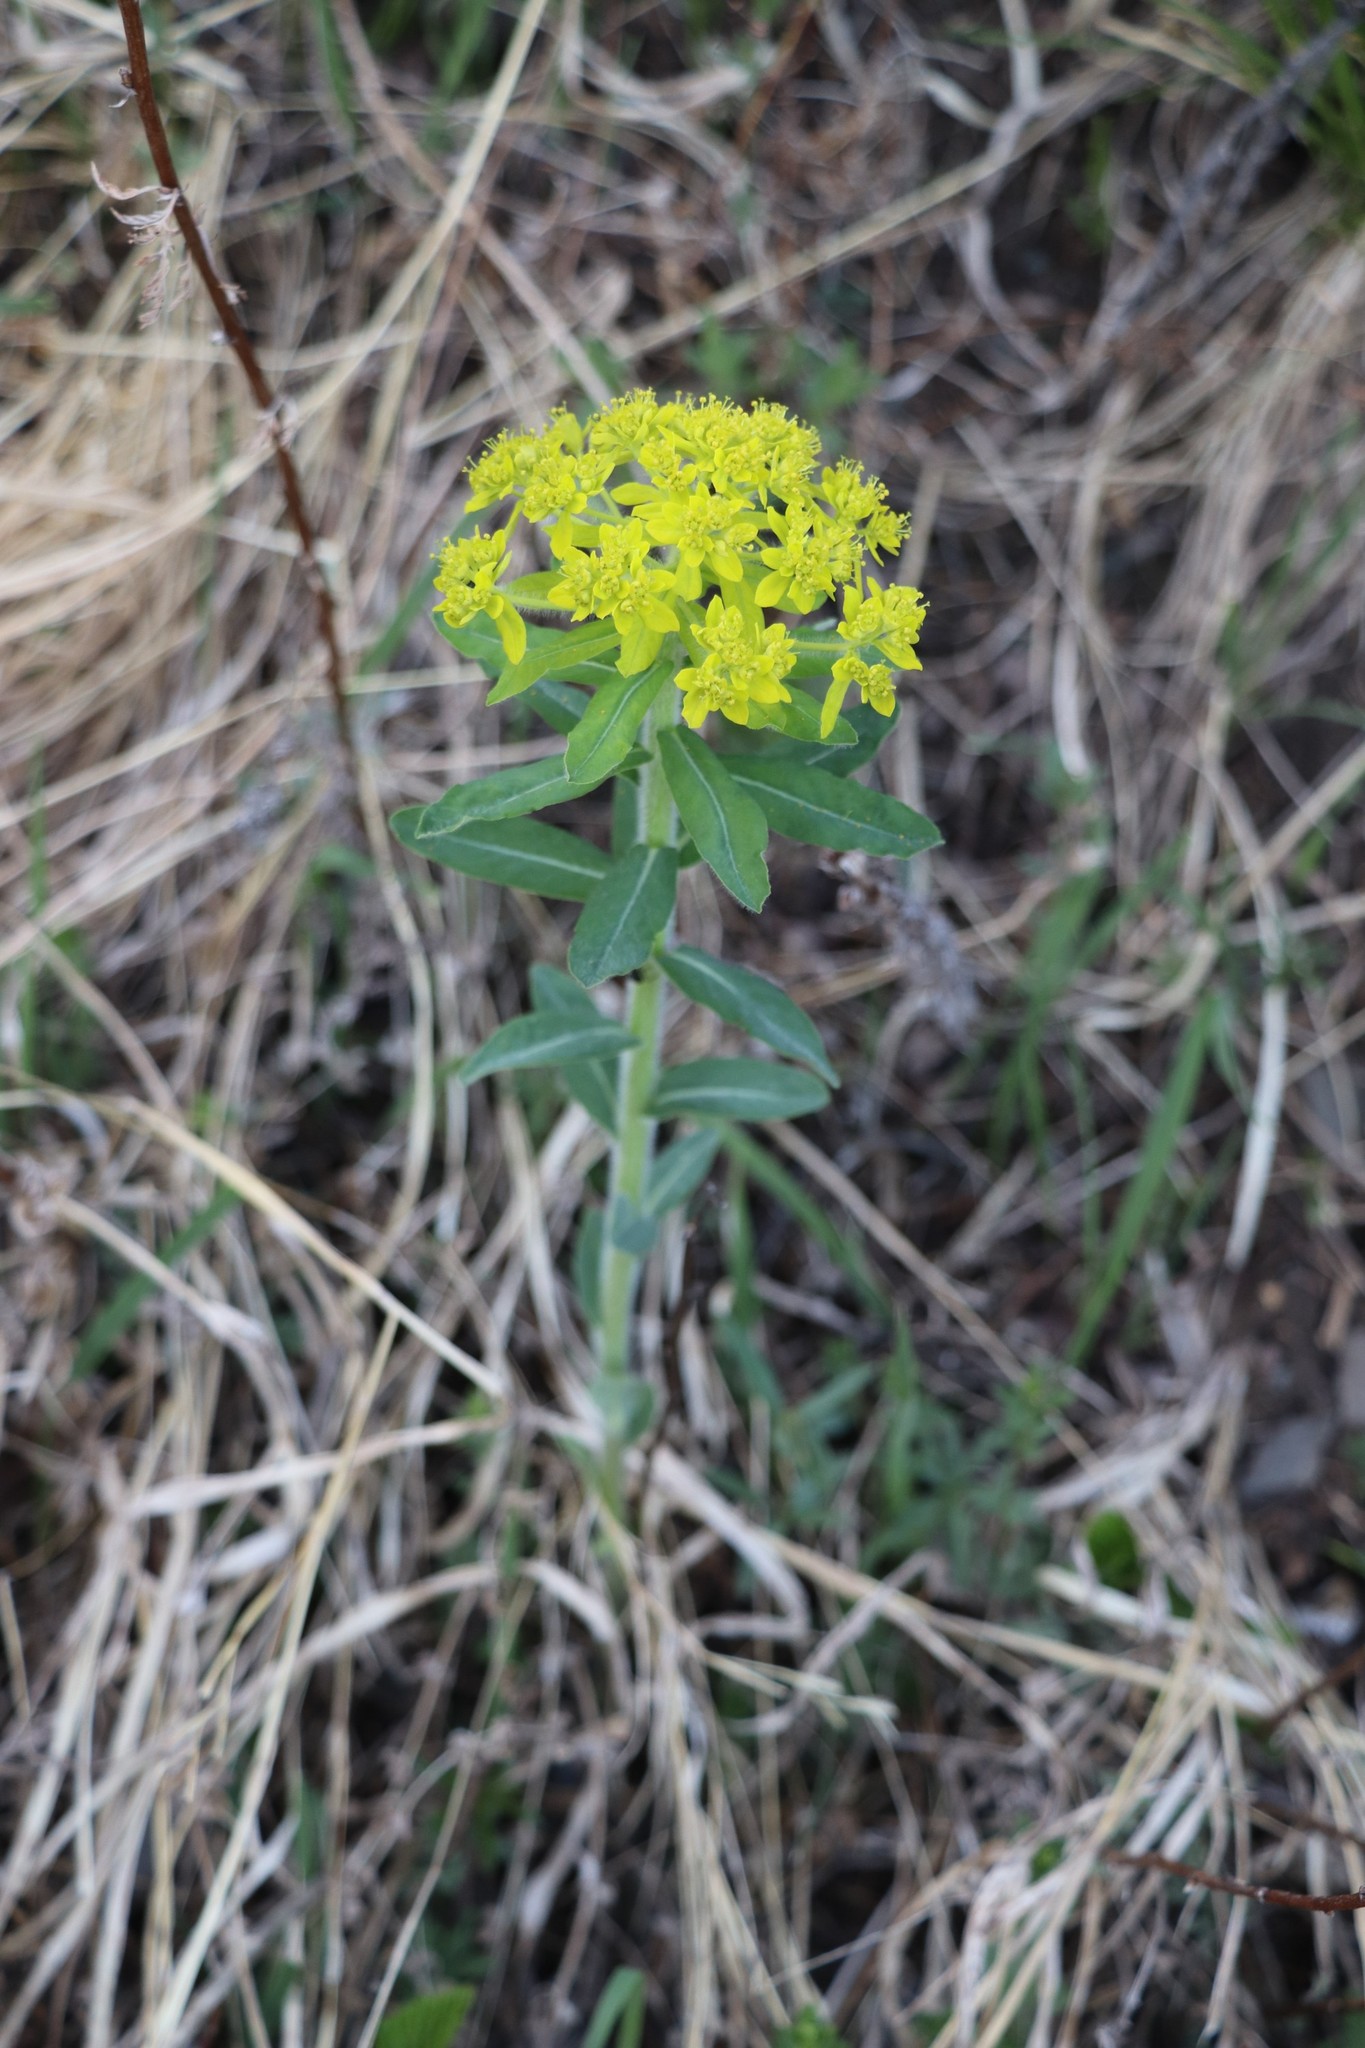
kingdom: Plantae
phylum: Tracheophyta
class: Magnoliopsida
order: Malpighiales
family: Euphorbiaceae
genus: Euphorbia
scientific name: Euphorbia pilosa
